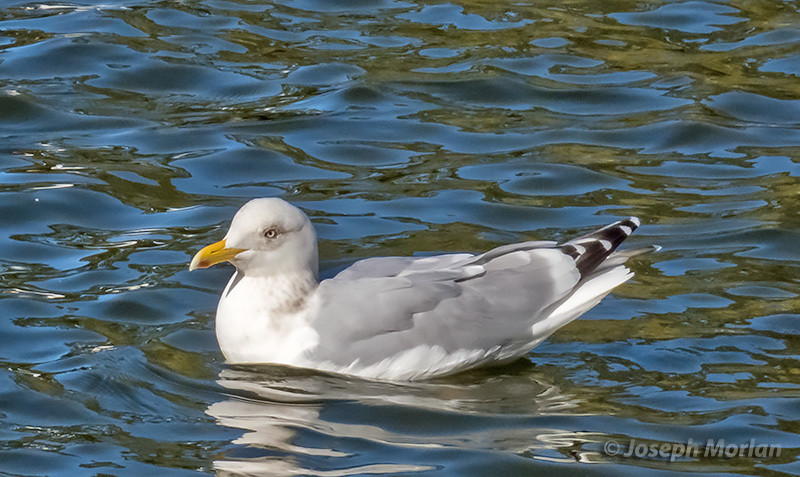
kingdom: Animalia
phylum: Chordata
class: Aves
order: Charadriiformes
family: Laridae
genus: Larus
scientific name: Larus
